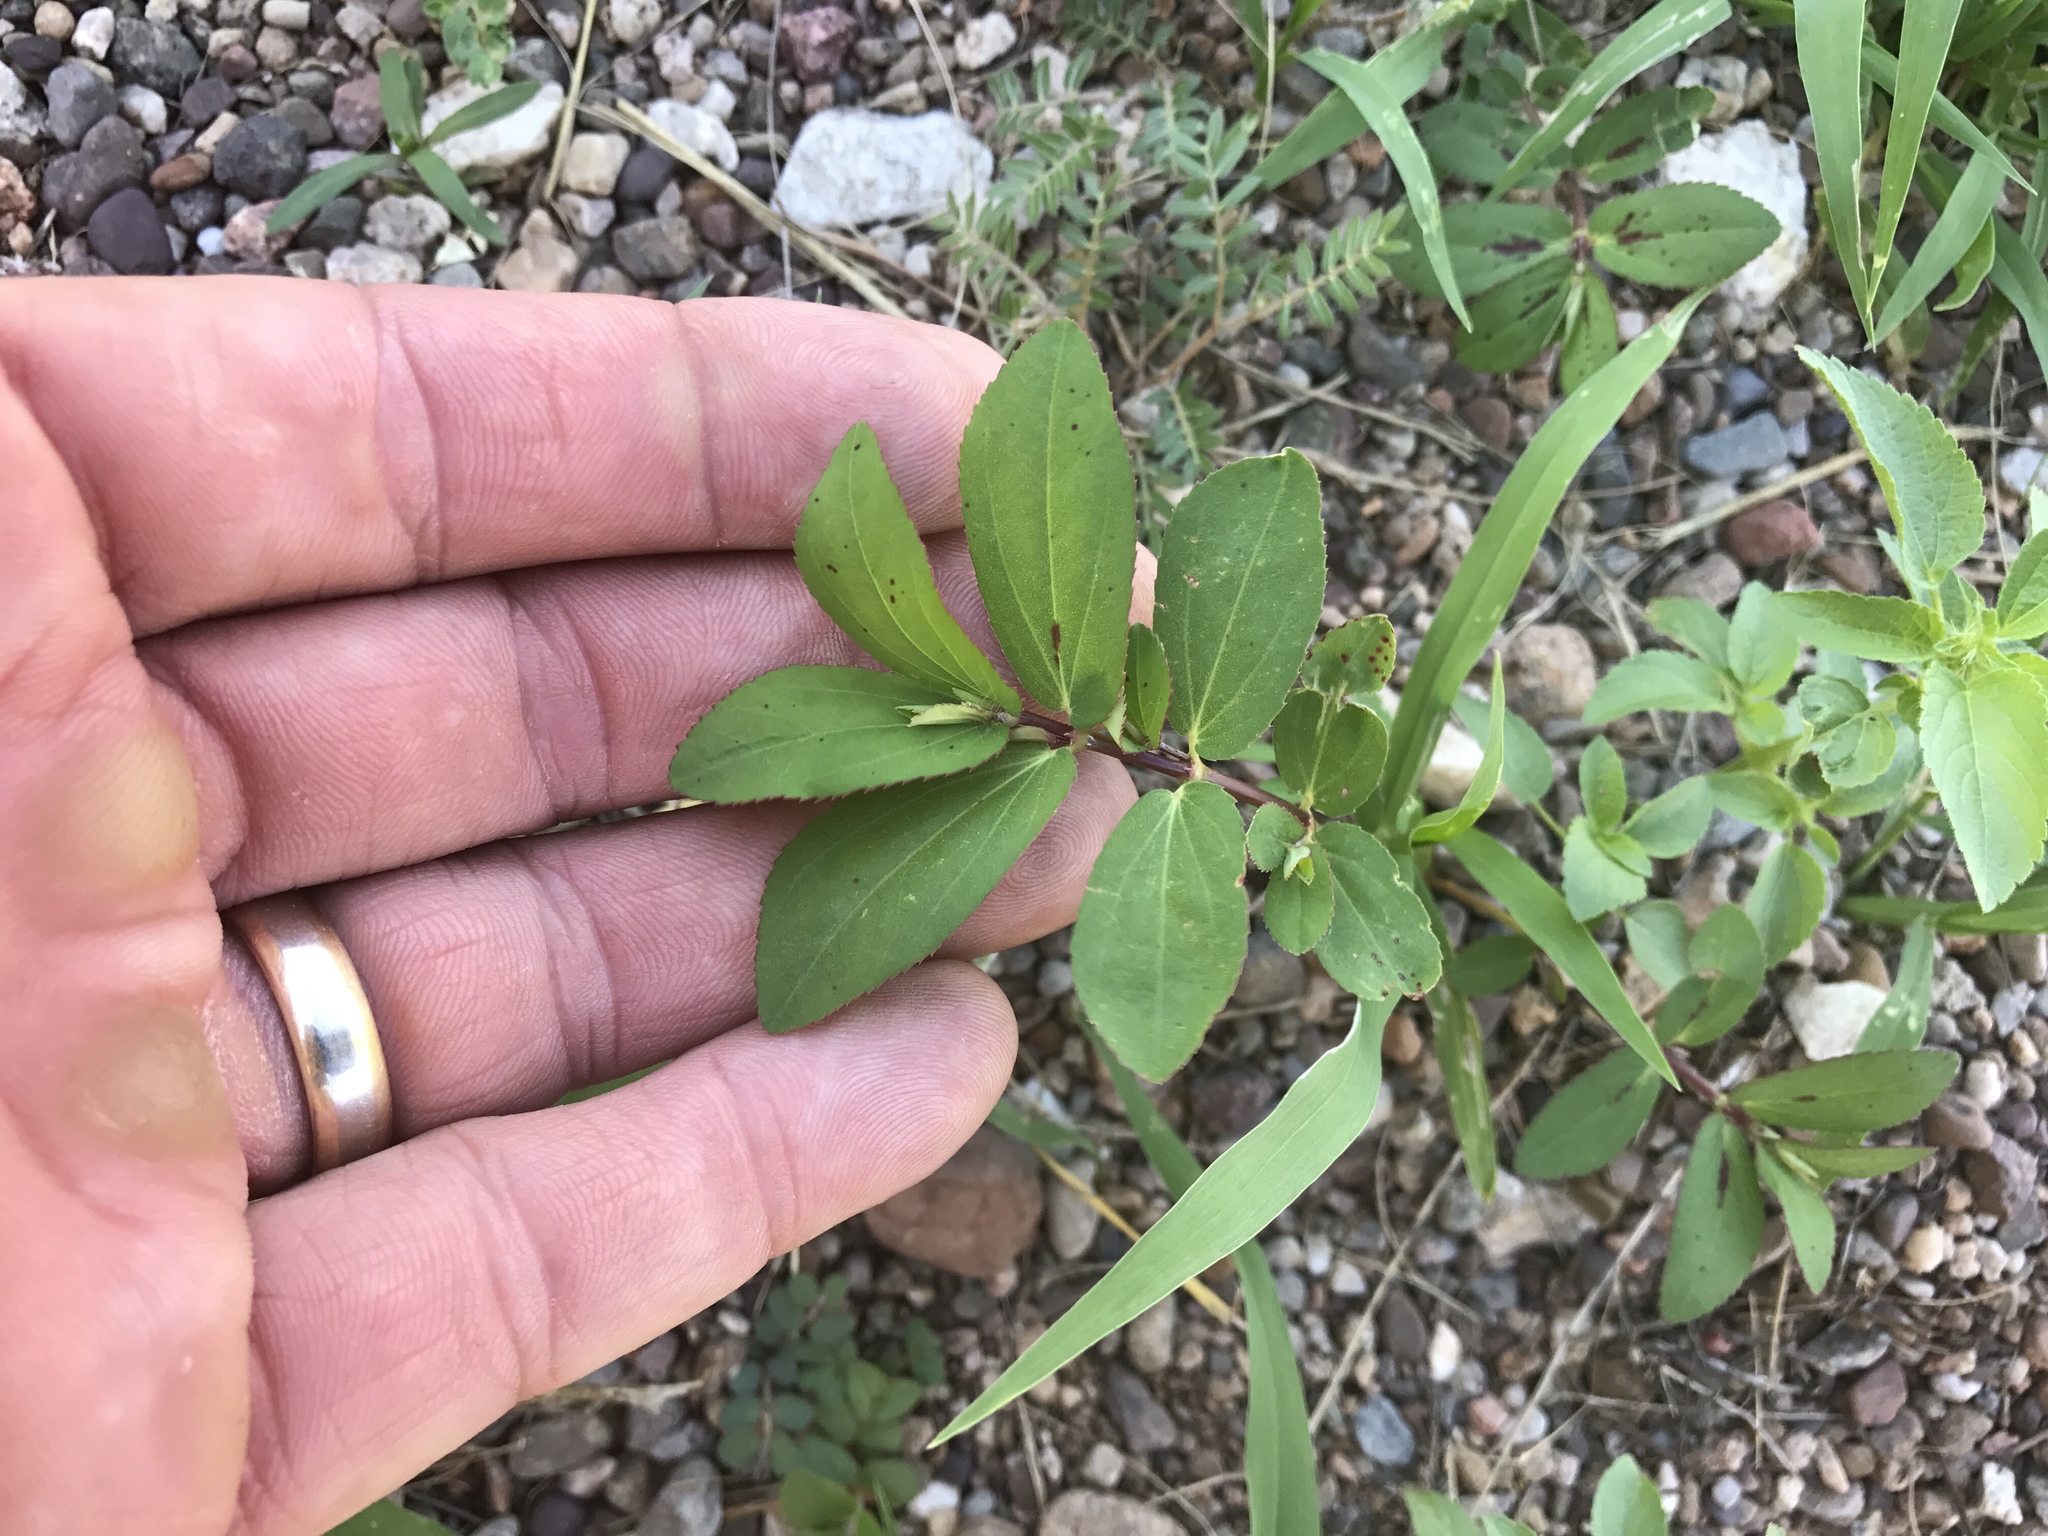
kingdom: Plantae
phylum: Tracheophyta
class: Magnoliopsida
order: Malpighiales
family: Euphorbiaceae
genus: Euphorbia
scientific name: Euphorbia hyssopifolia
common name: Hyssopleaf sandmat
